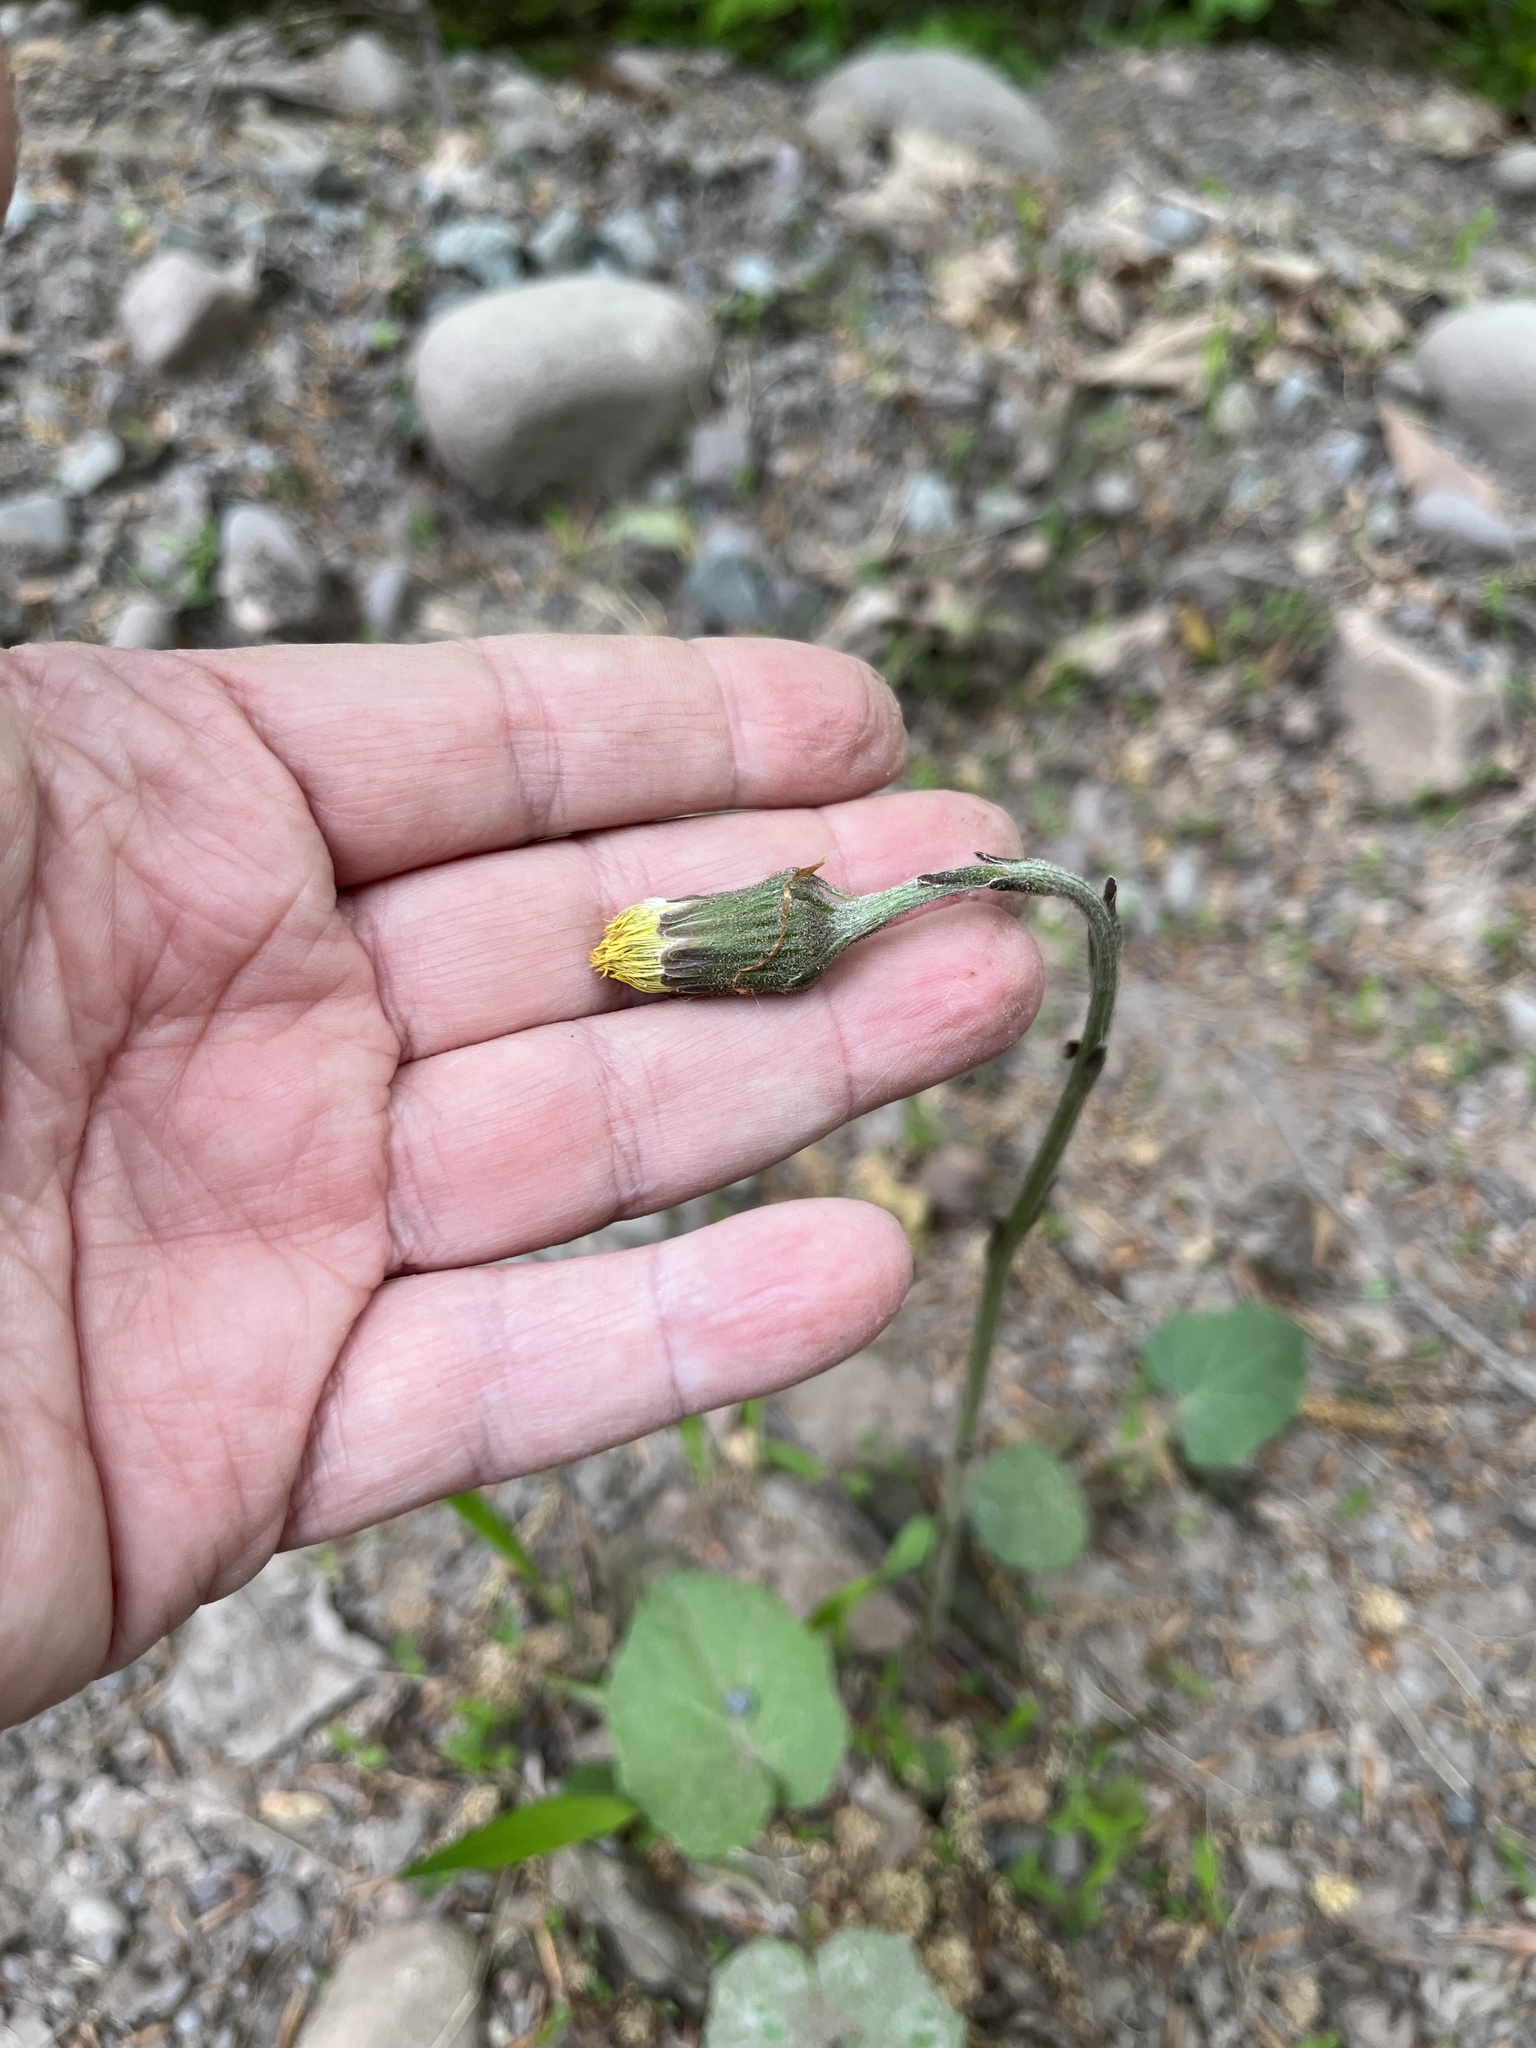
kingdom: Plantae
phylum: Tracheophyta
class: Magnoliopsida
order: Asterales
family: Asteraceae
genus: Tussilago
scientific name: Tussilago farfara
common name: Coltsfoot
